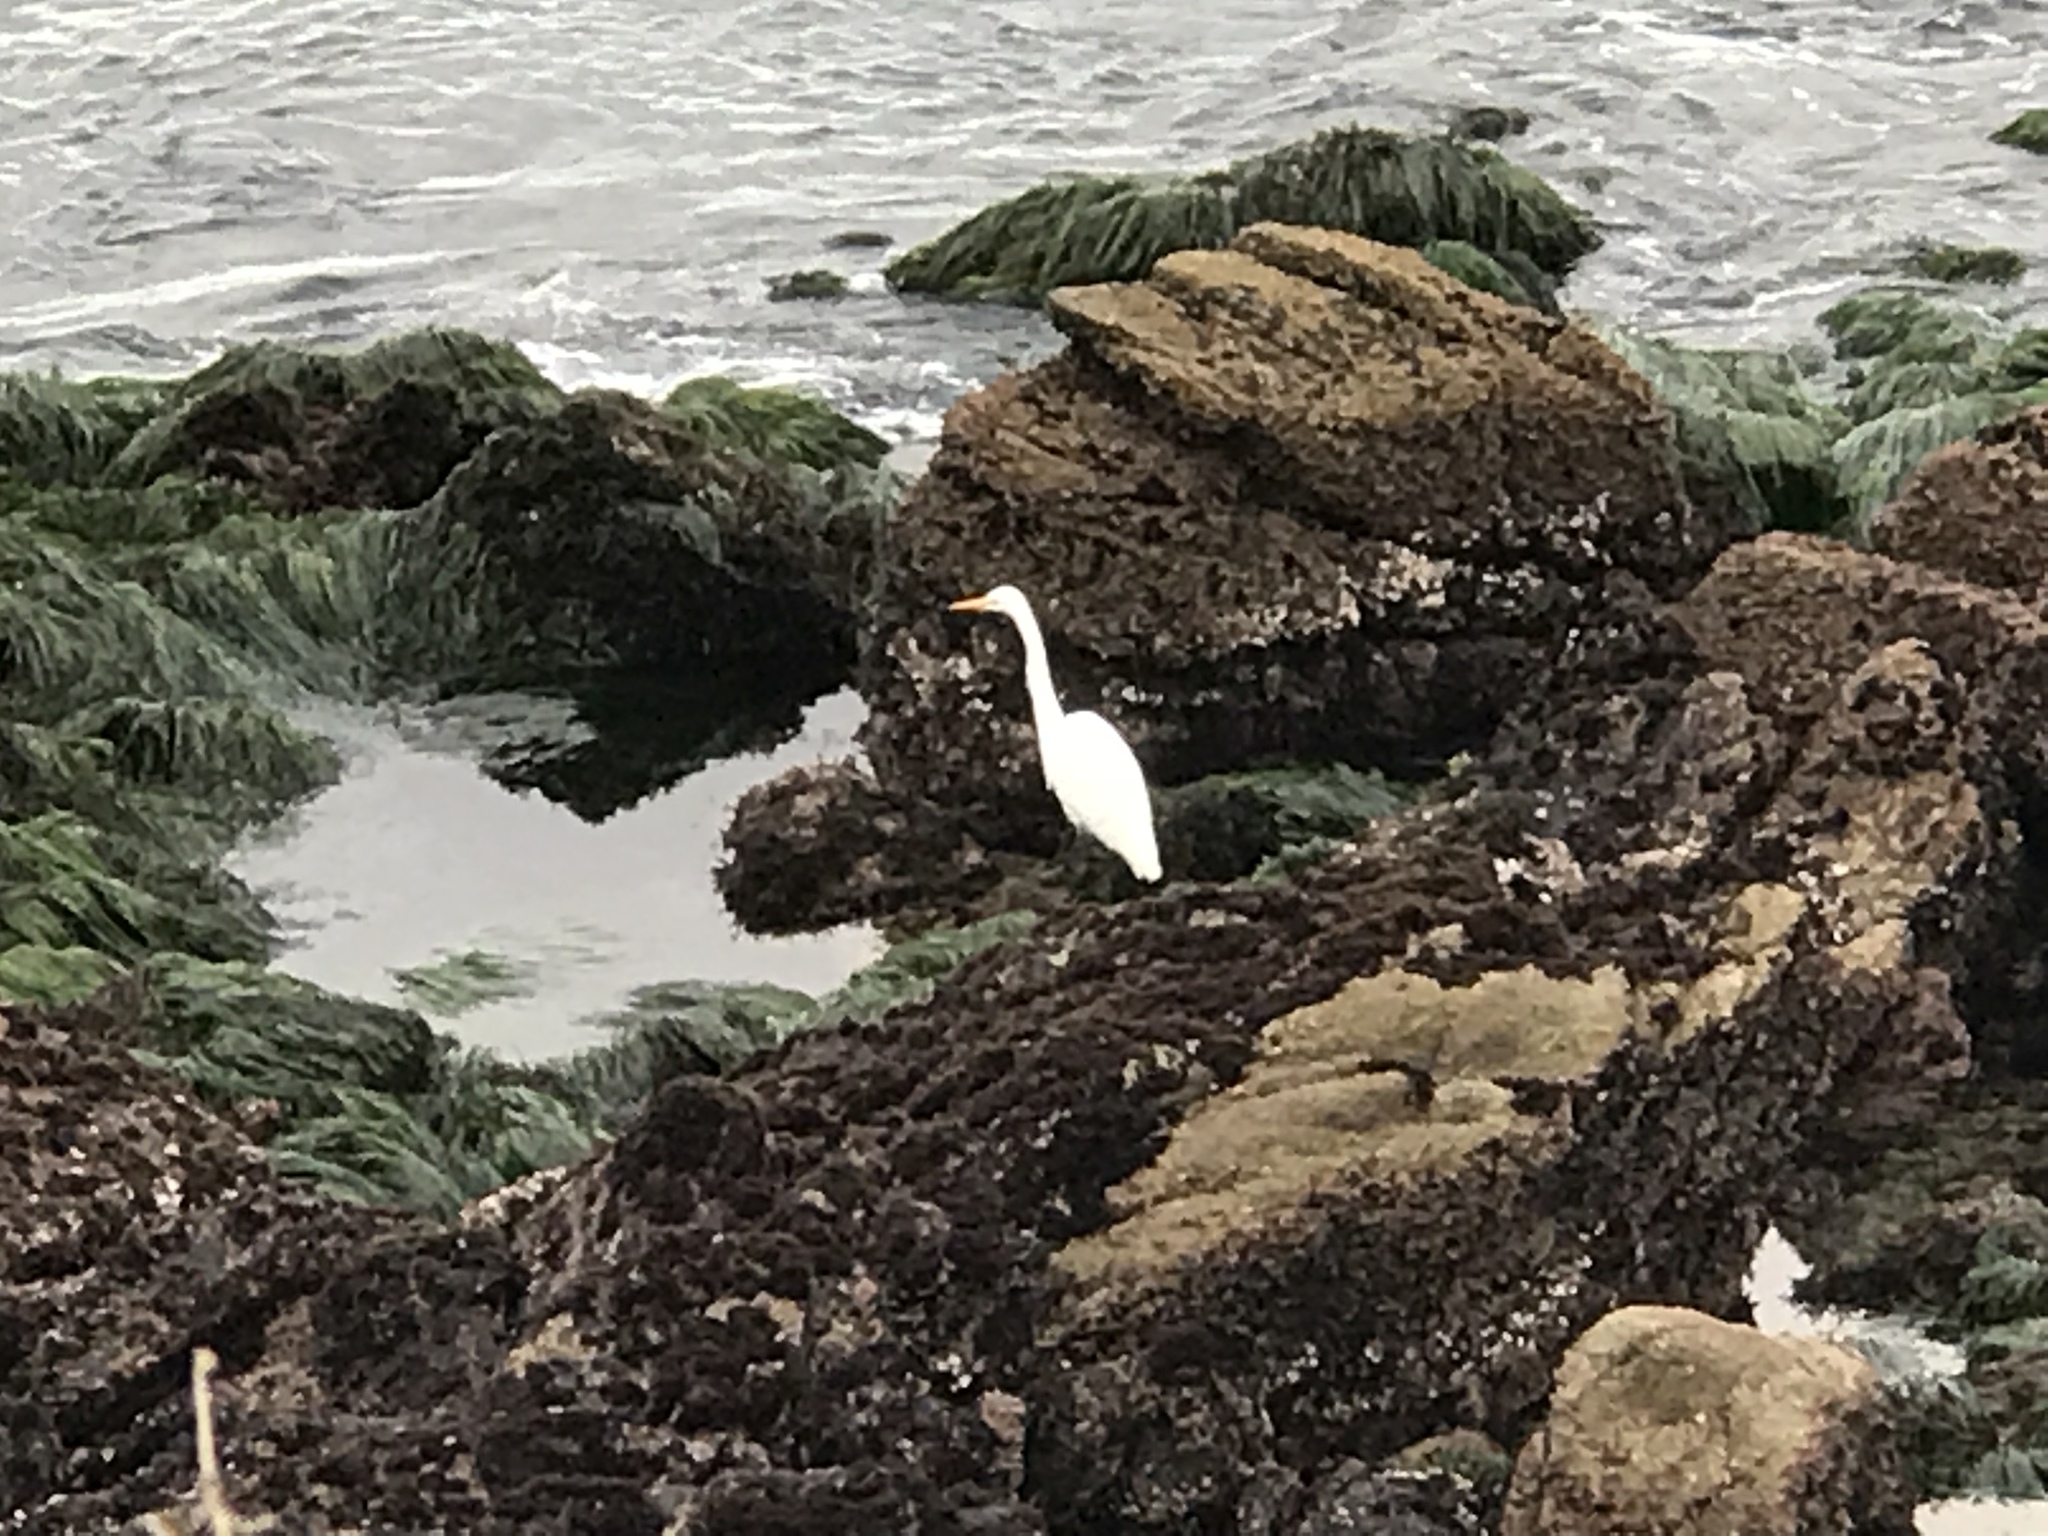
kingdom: Animalia
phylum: Chordata
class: Aves
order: Pelecaniformes
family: Ardeidae
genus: Ardea
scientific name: Ardea alba
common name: Great egret
